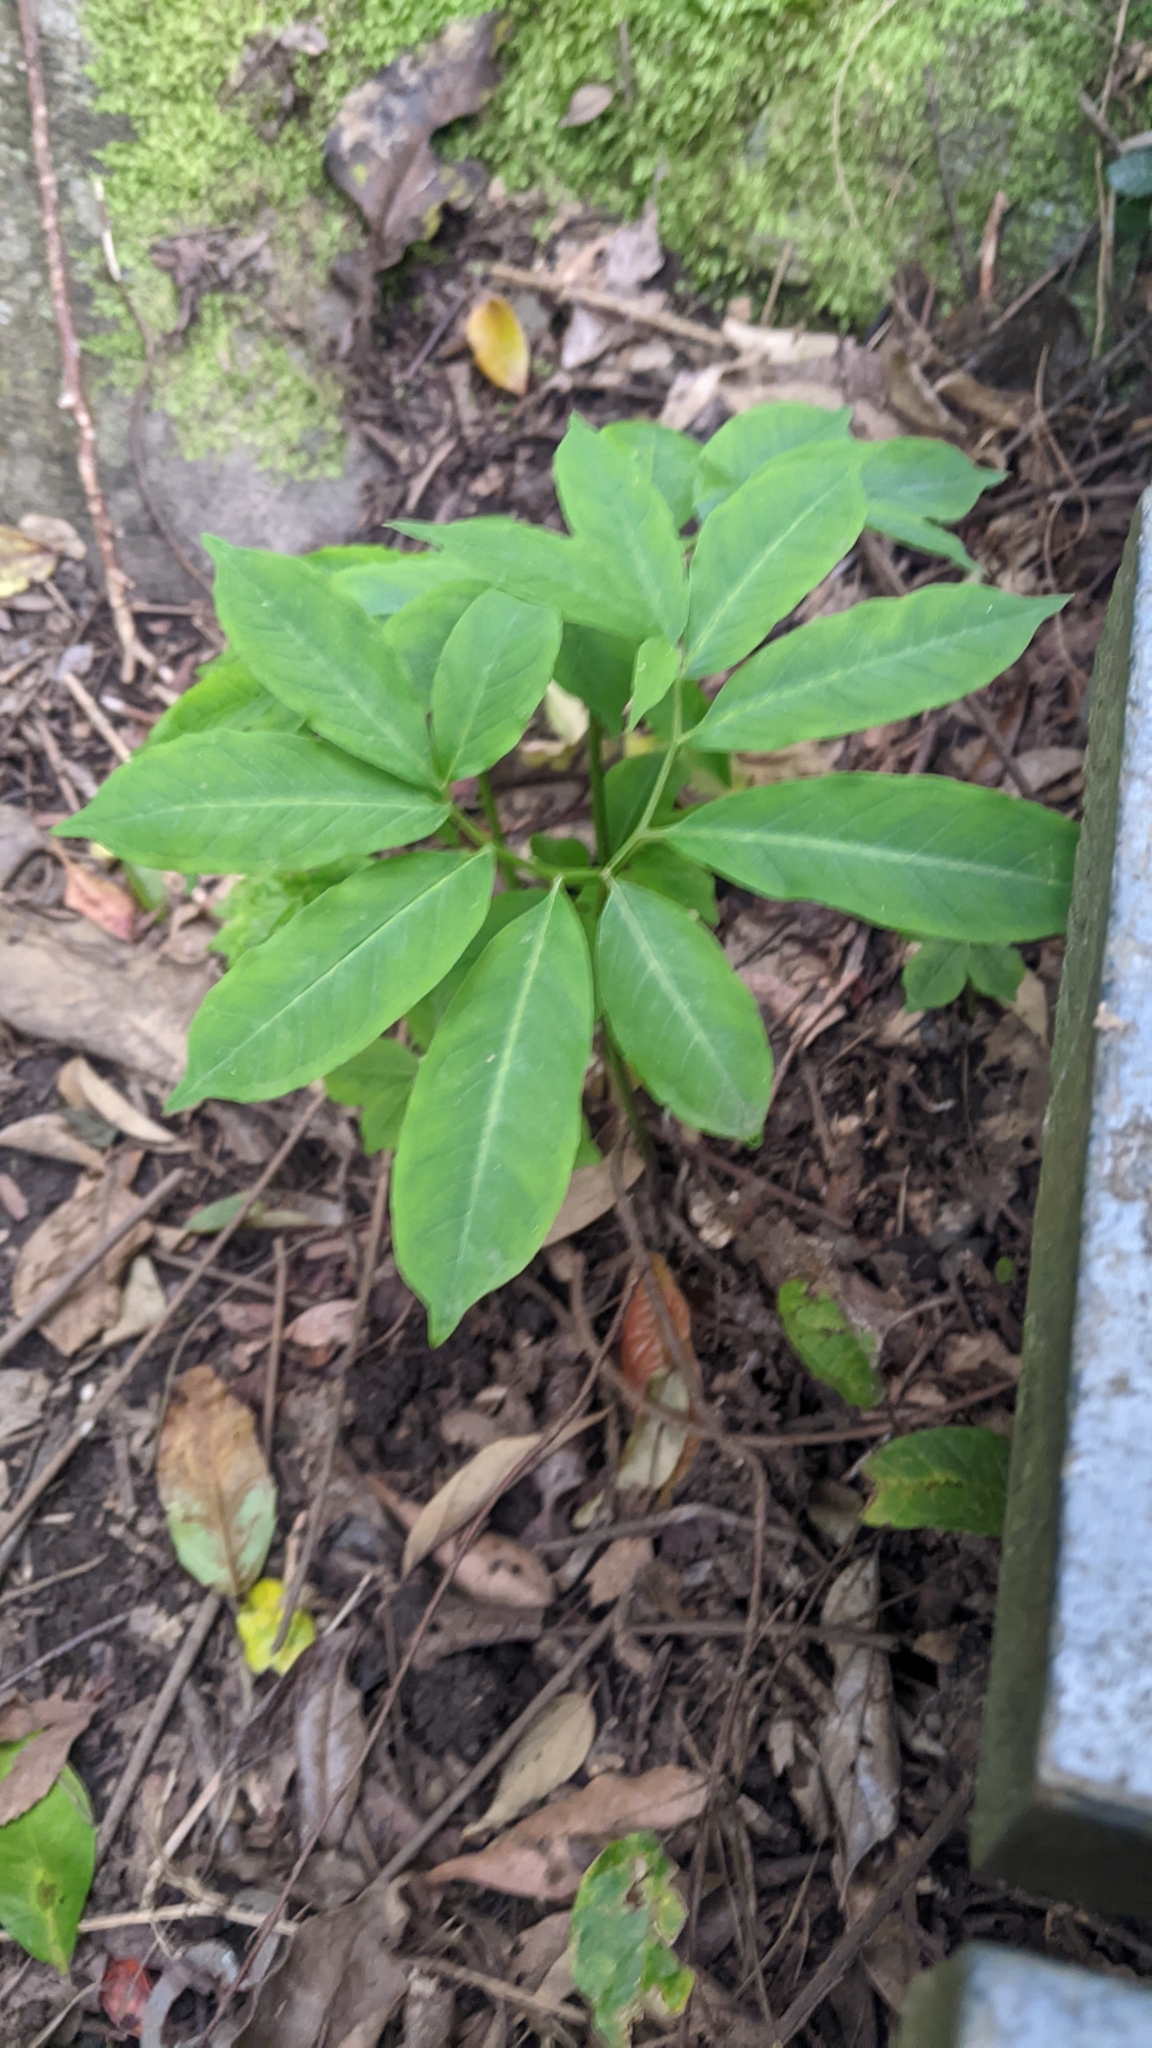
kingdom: Plantae
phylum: Tracheophyta
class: Liliopsida
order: Alismatales
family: Araceae
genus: Arisaema
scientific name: Arisaema thunbergii
